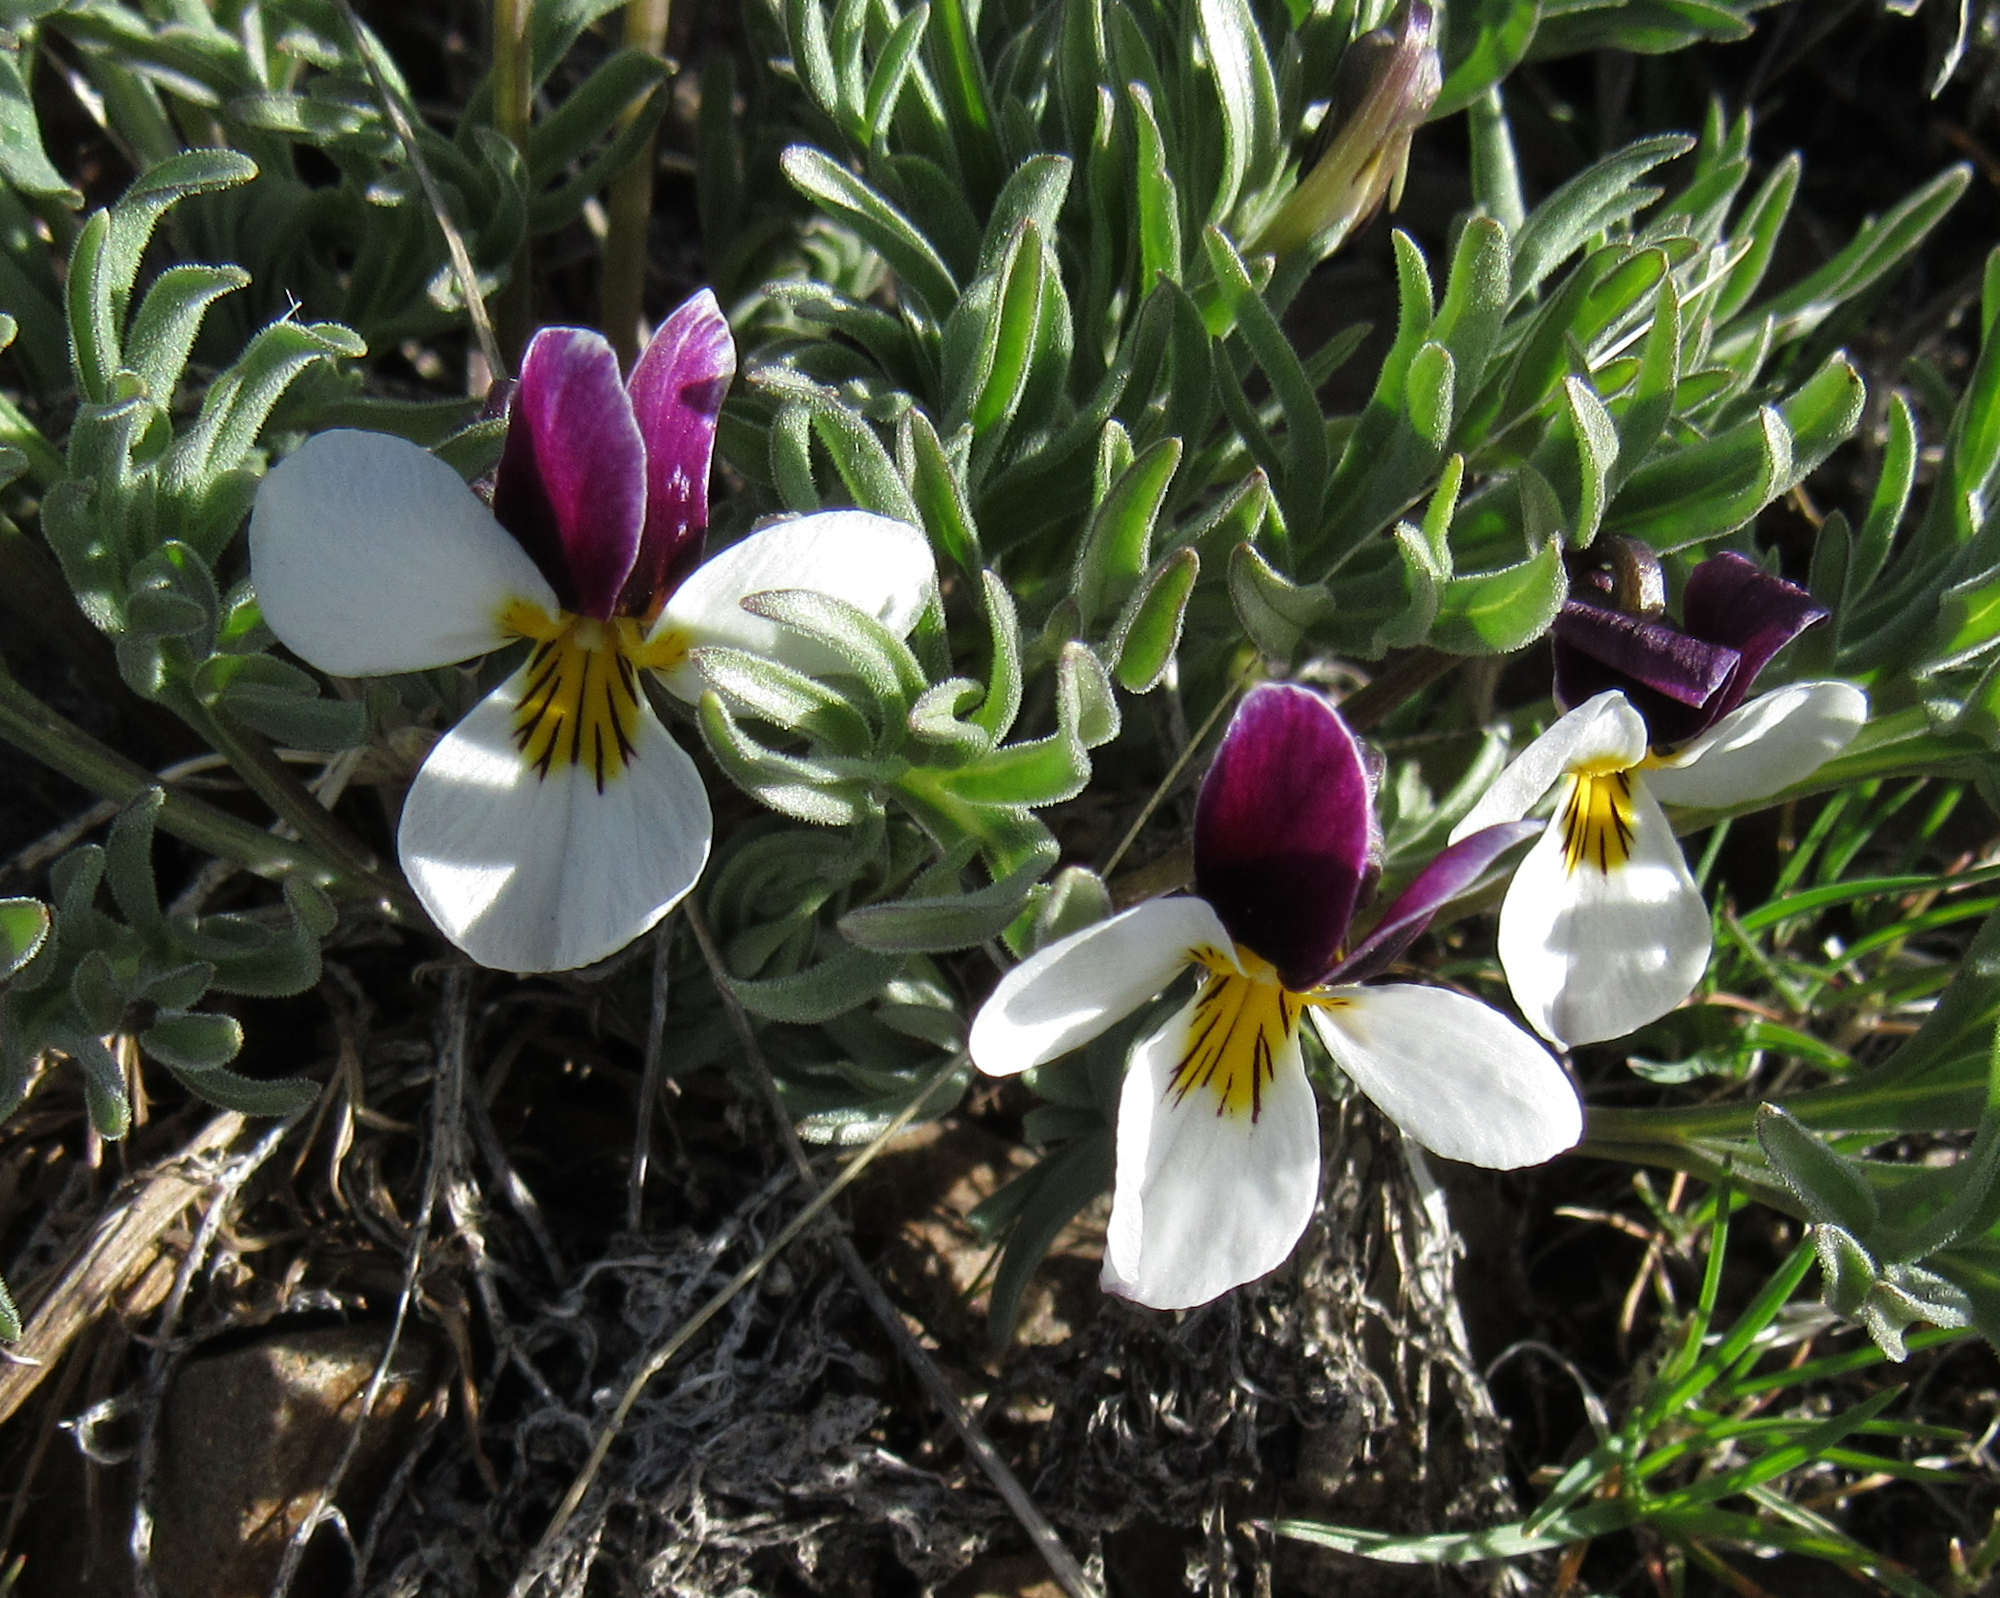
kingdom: Plantae
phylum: Tracheophyta
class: Magnoliopsida
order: Malpighiales
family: Violaceae
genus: Viola
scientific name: Viola beckwithii
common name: Beckwith's violet
